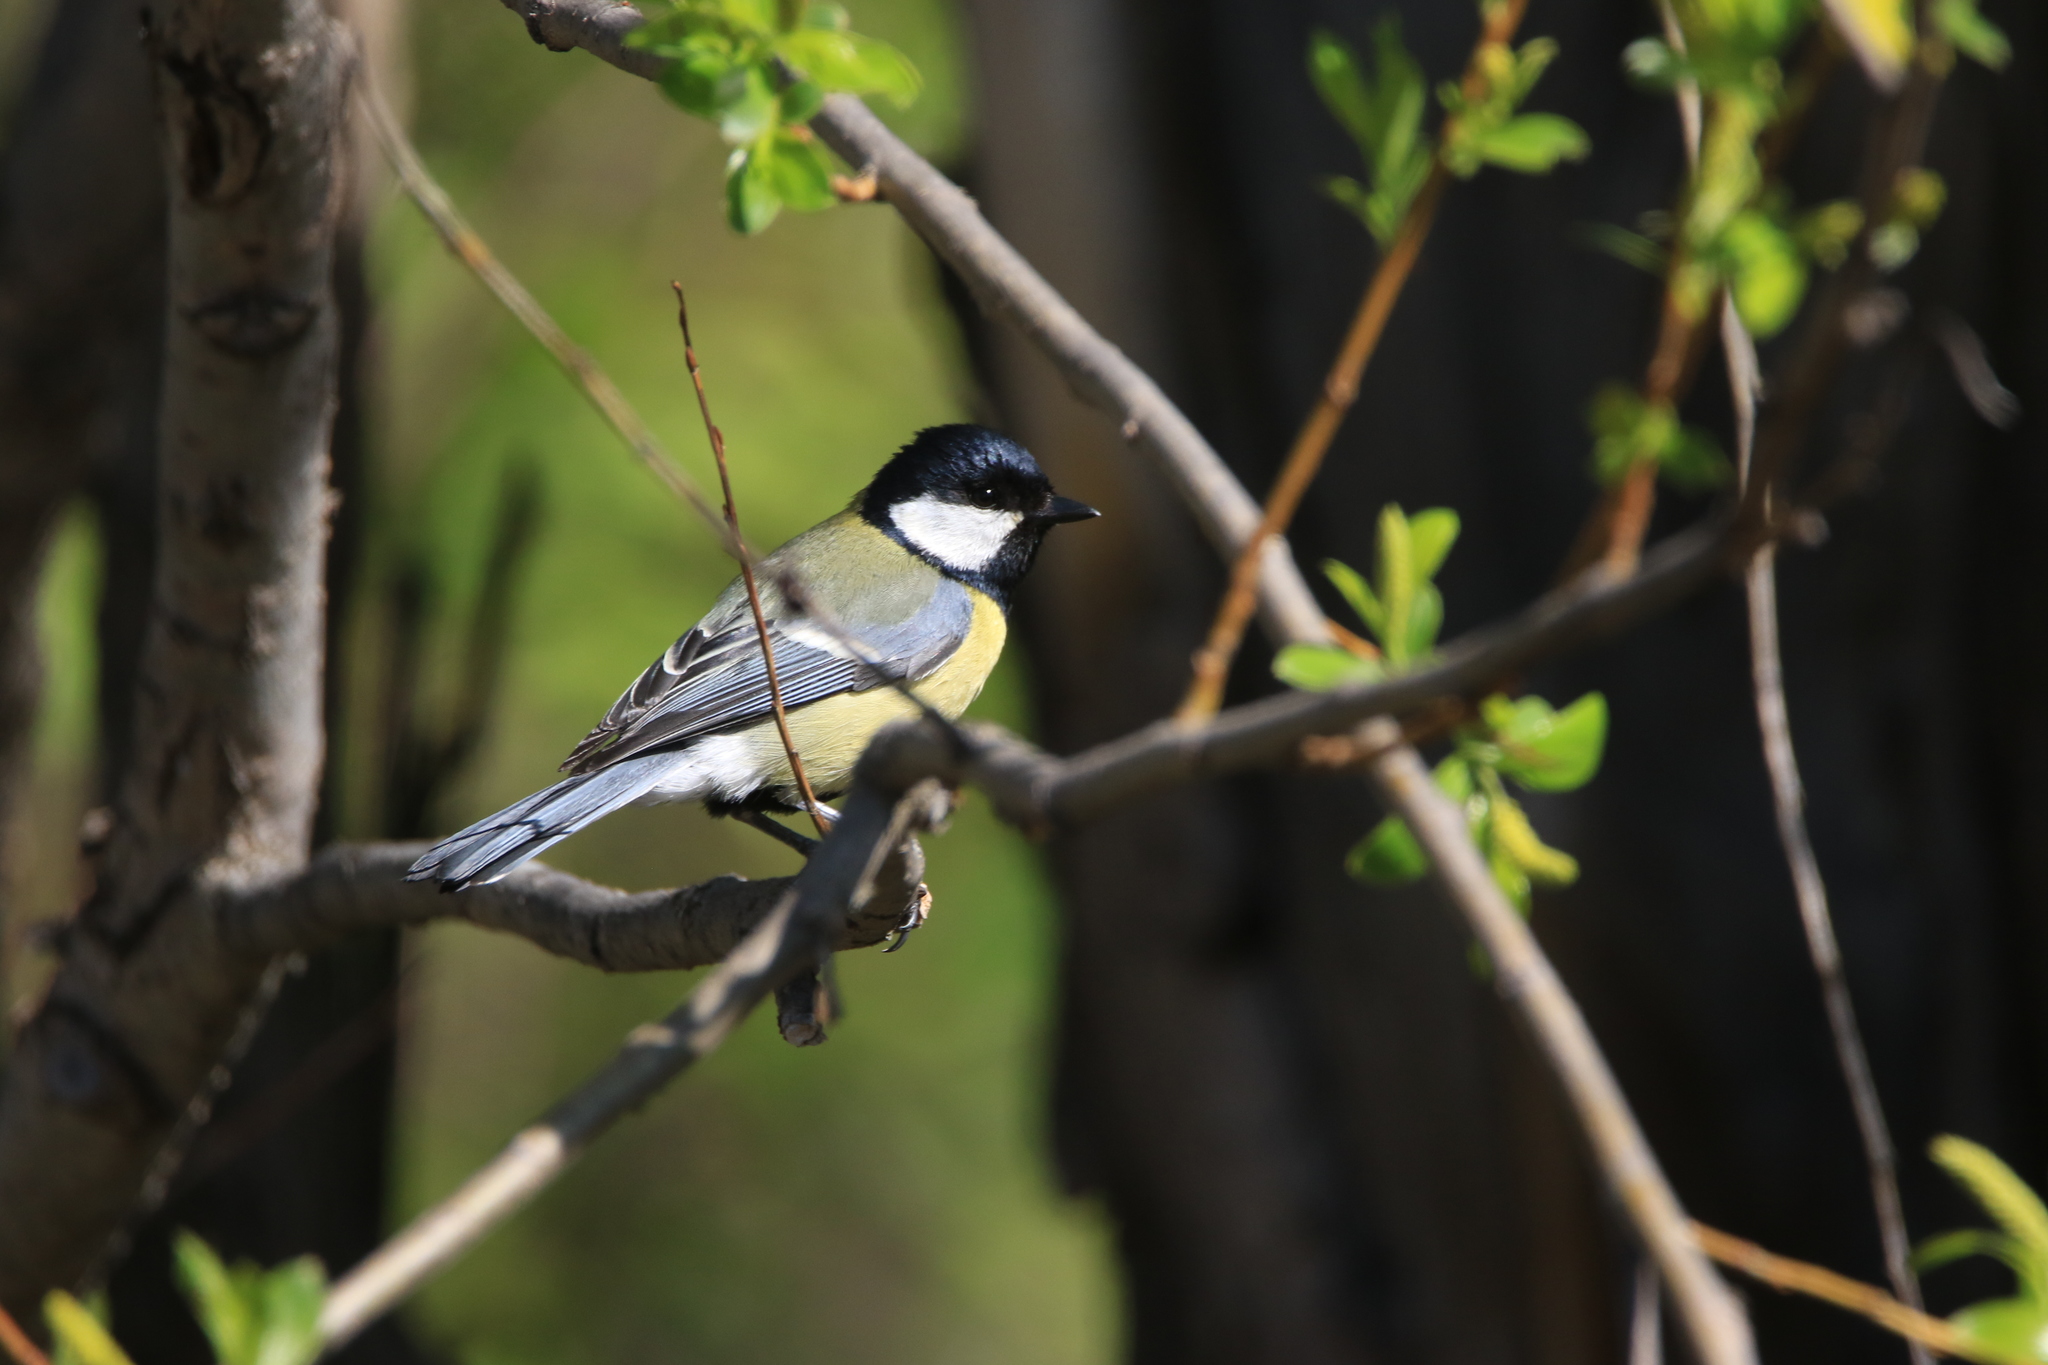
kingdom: Animalia
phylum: Chordata
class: Aves
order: Passeriformes
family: Paridae
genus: Parus
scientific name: Parus major
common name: Great tit
